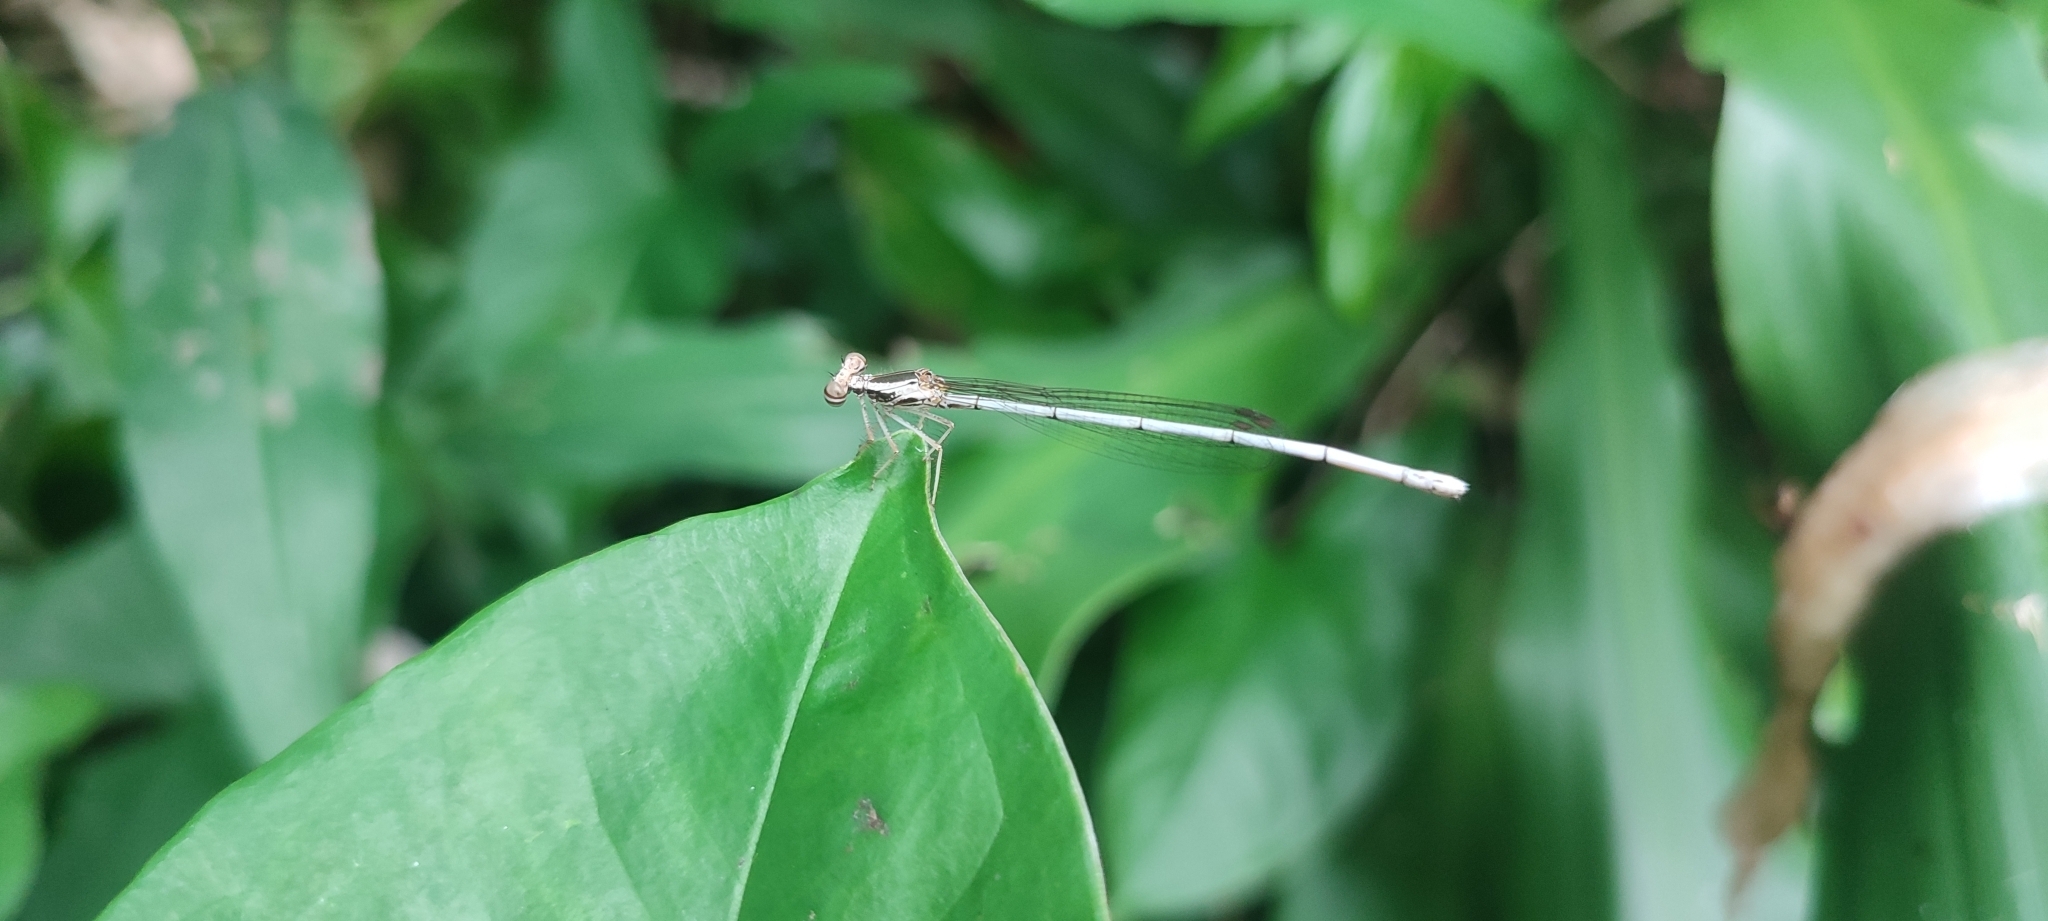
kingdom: Animalia
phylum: Arthropoda
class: Insecta
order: Odonata
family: Platycnemididae
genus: Copera
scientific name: Copera marginipes
